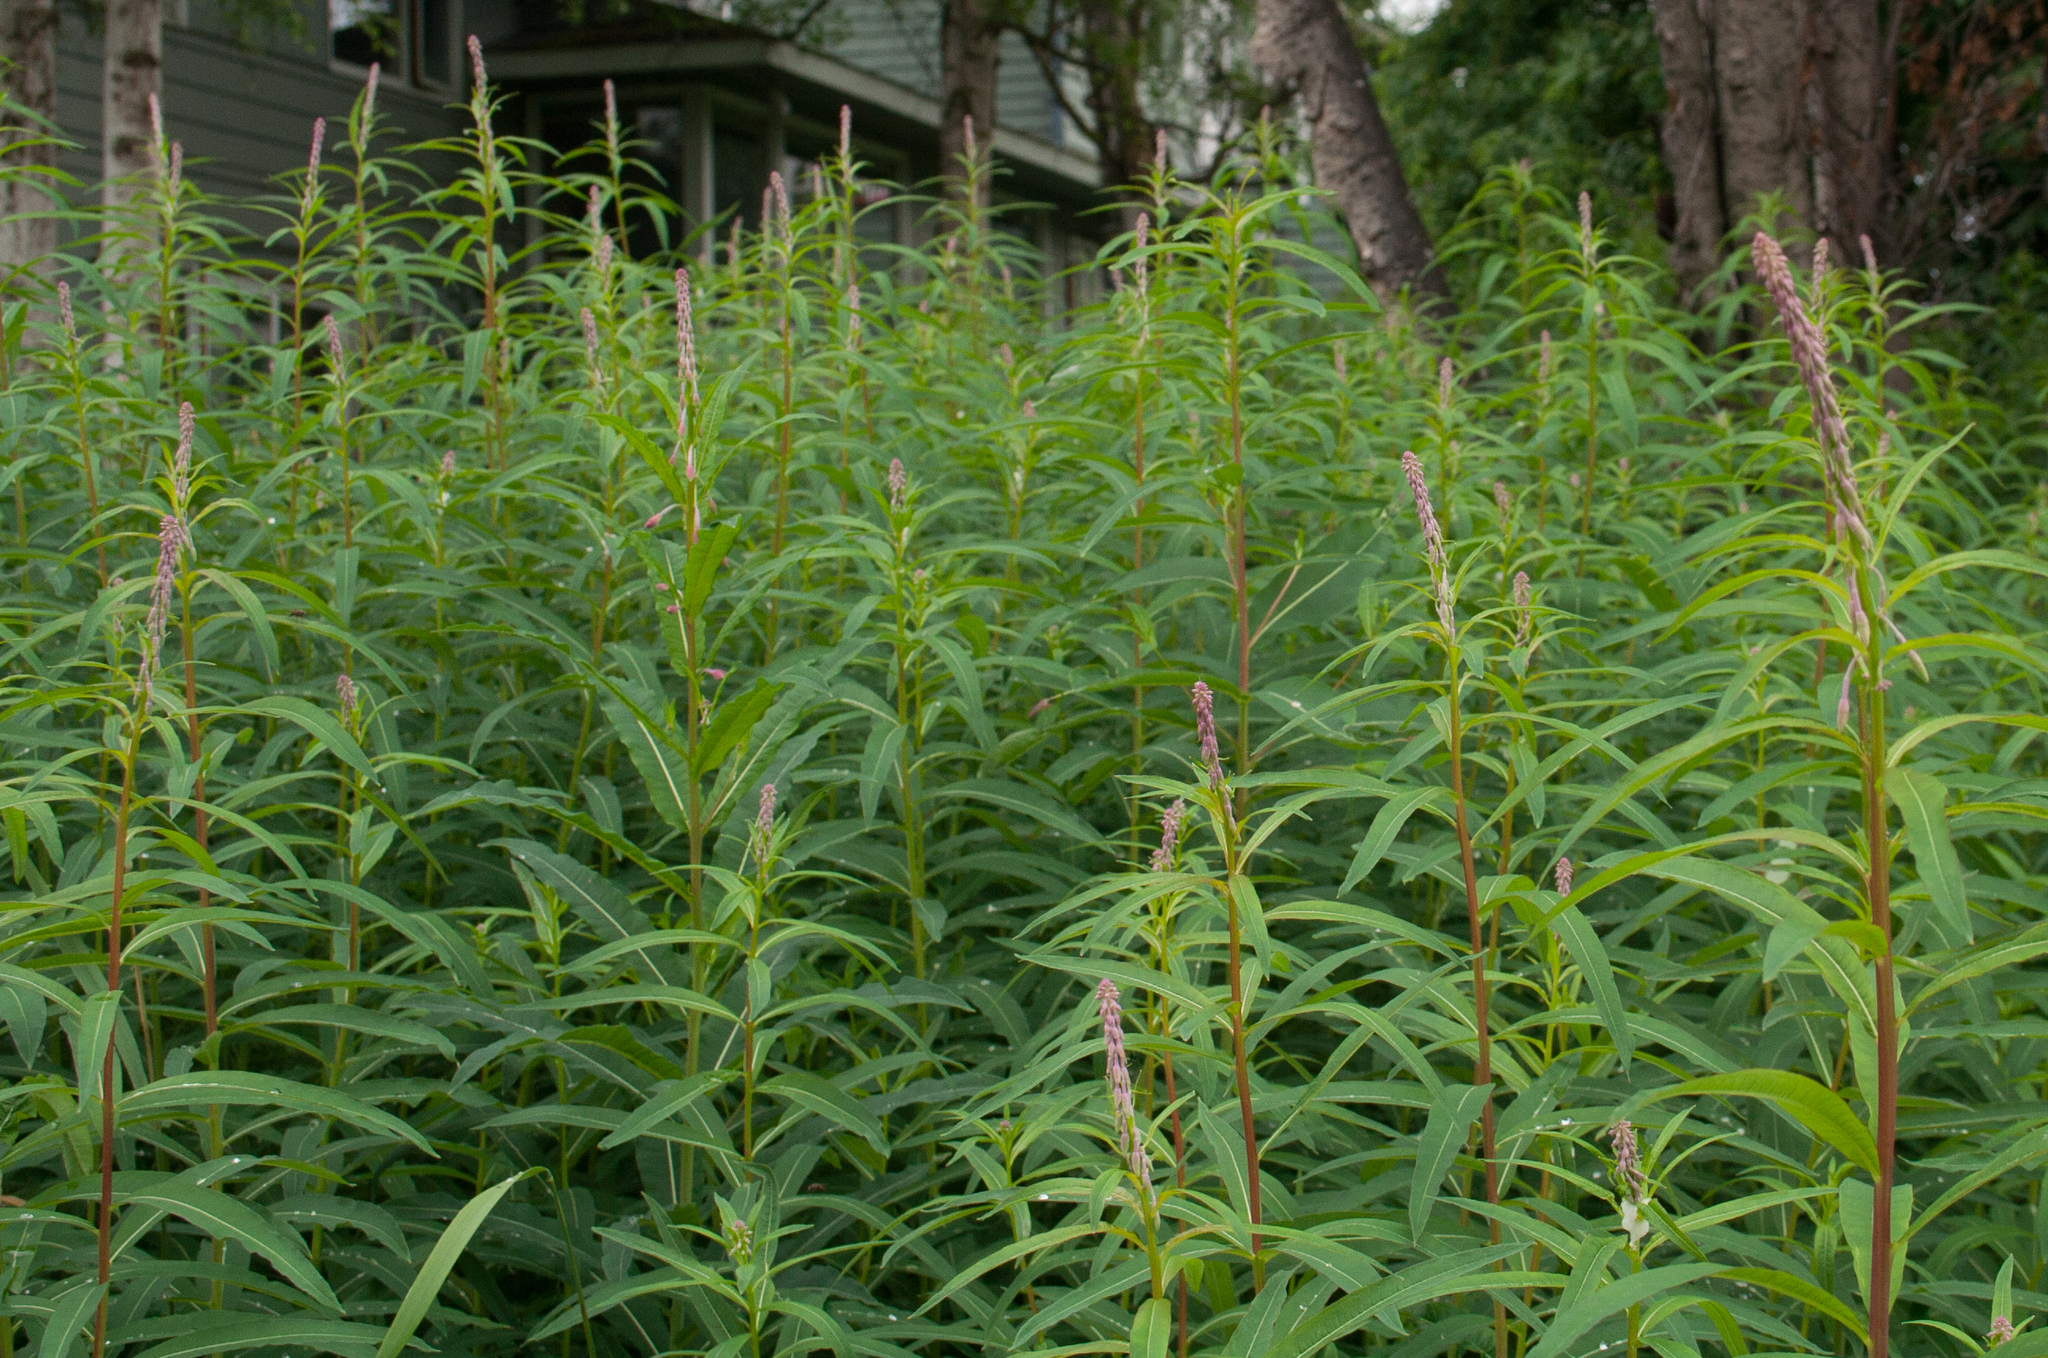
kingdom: Plantae
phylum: Tracheophyta
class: Magnoliopsida
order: Myrtales
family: Onagraceae
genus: Chamaenerion
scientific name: Chamaenerion angustifolium
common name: Fireweed
